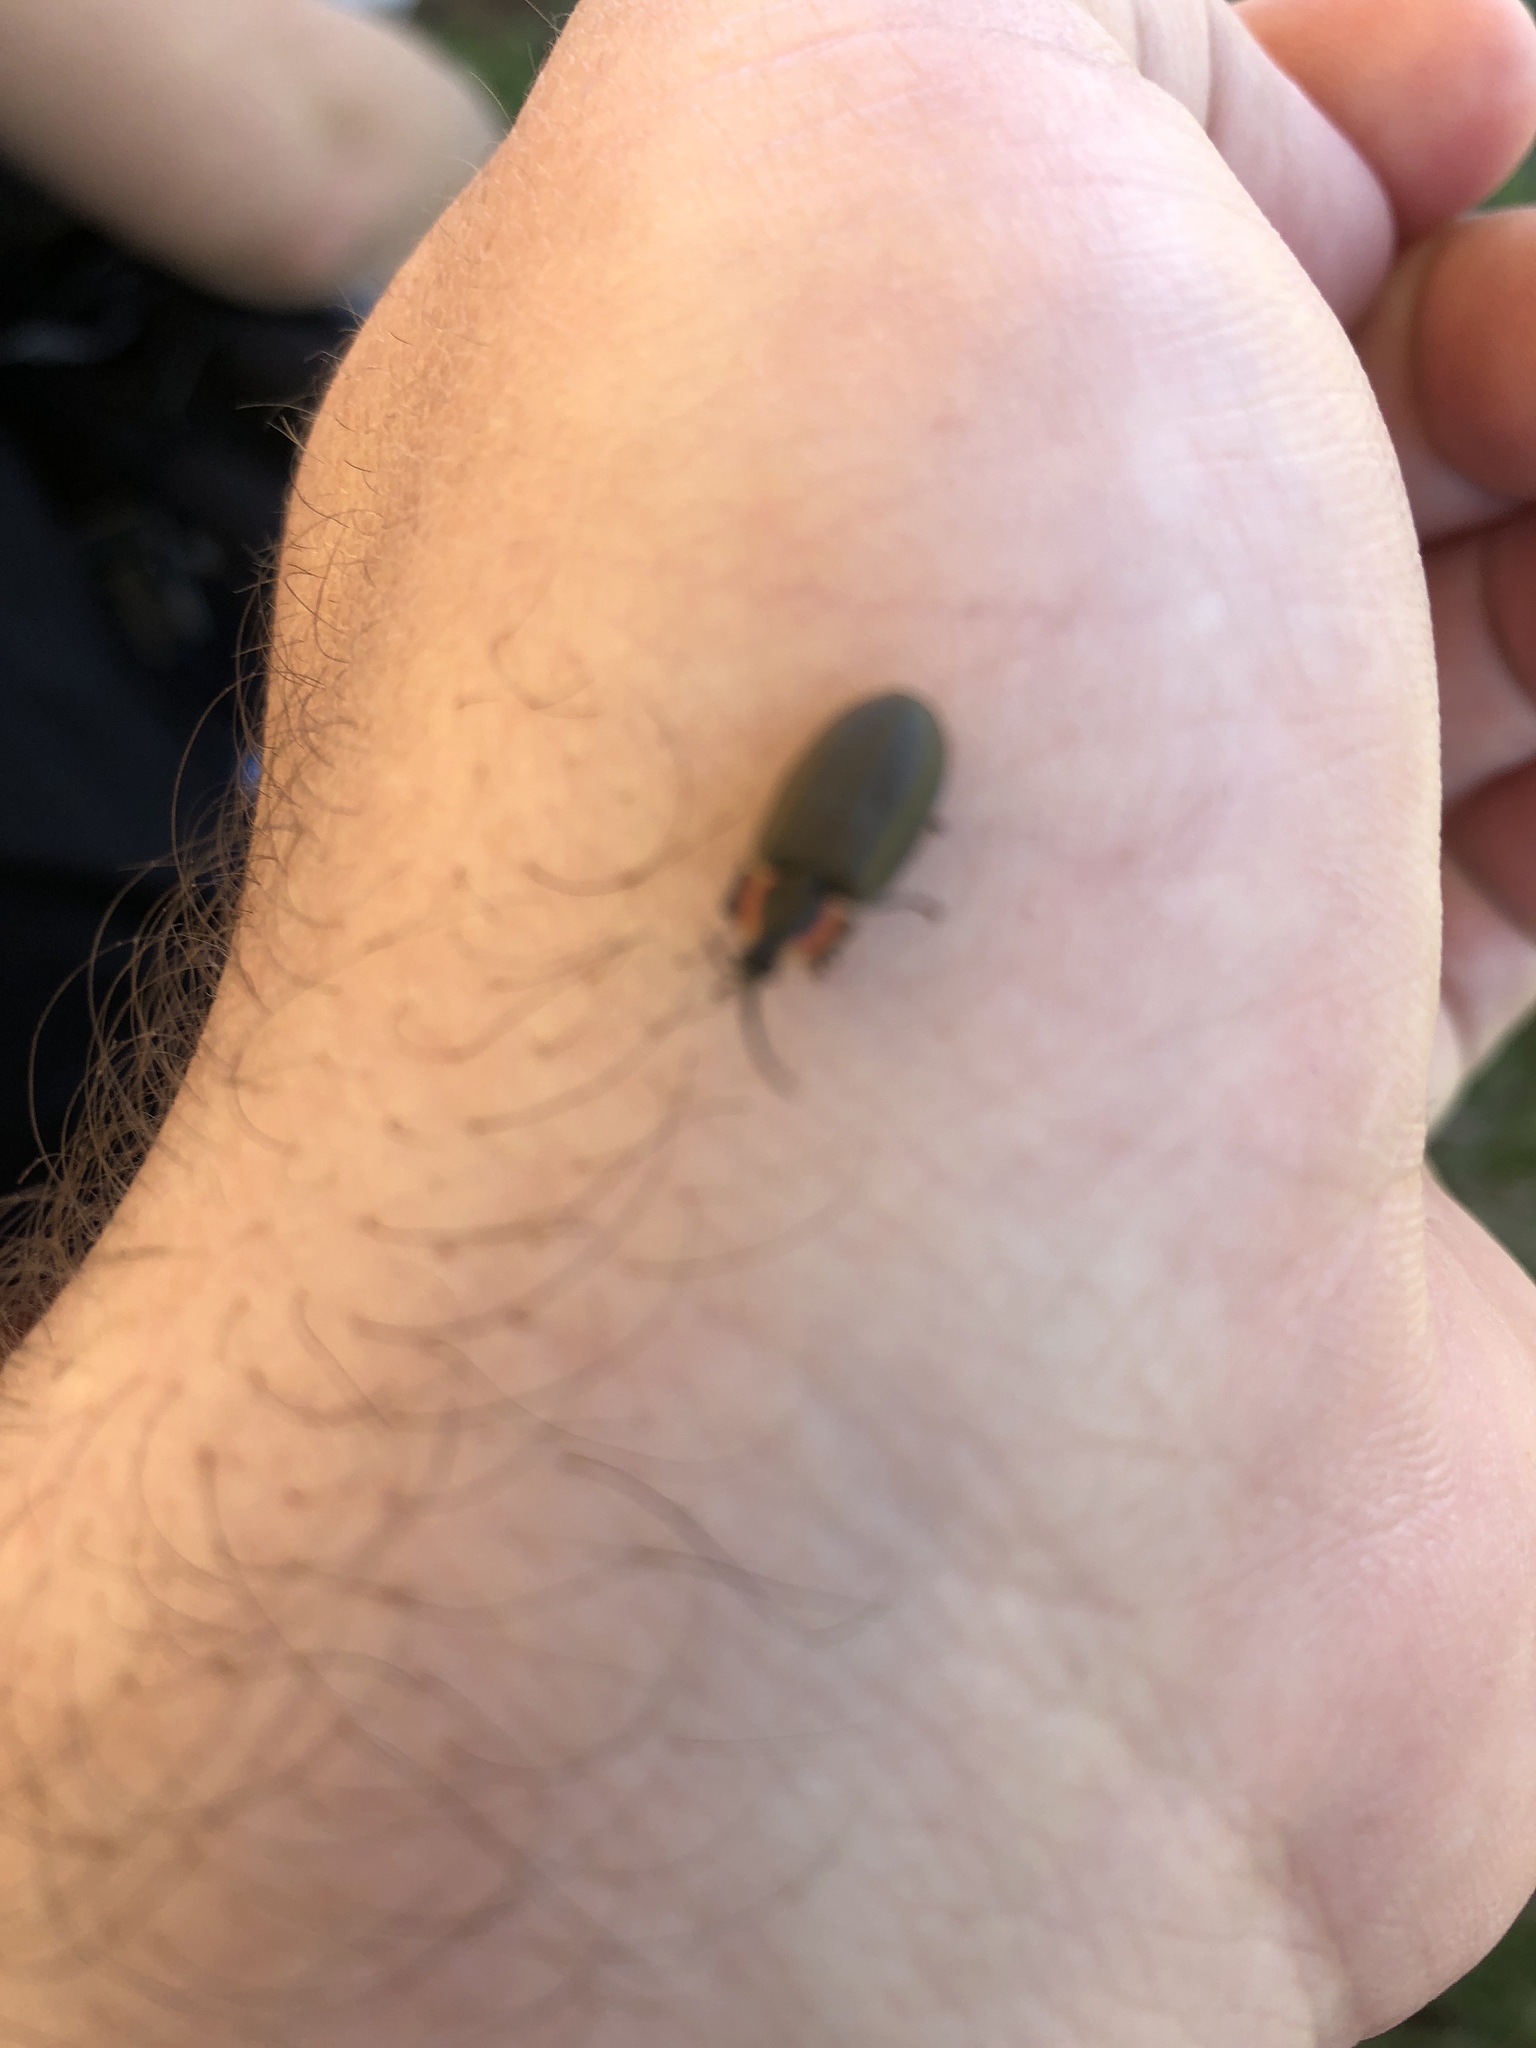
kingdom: Animalia
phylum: Arthropoda
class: Insecta
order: Coleoptera
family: Lampyridae
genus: Photinus
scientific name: Photinus corrusca
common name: Winter firefly
